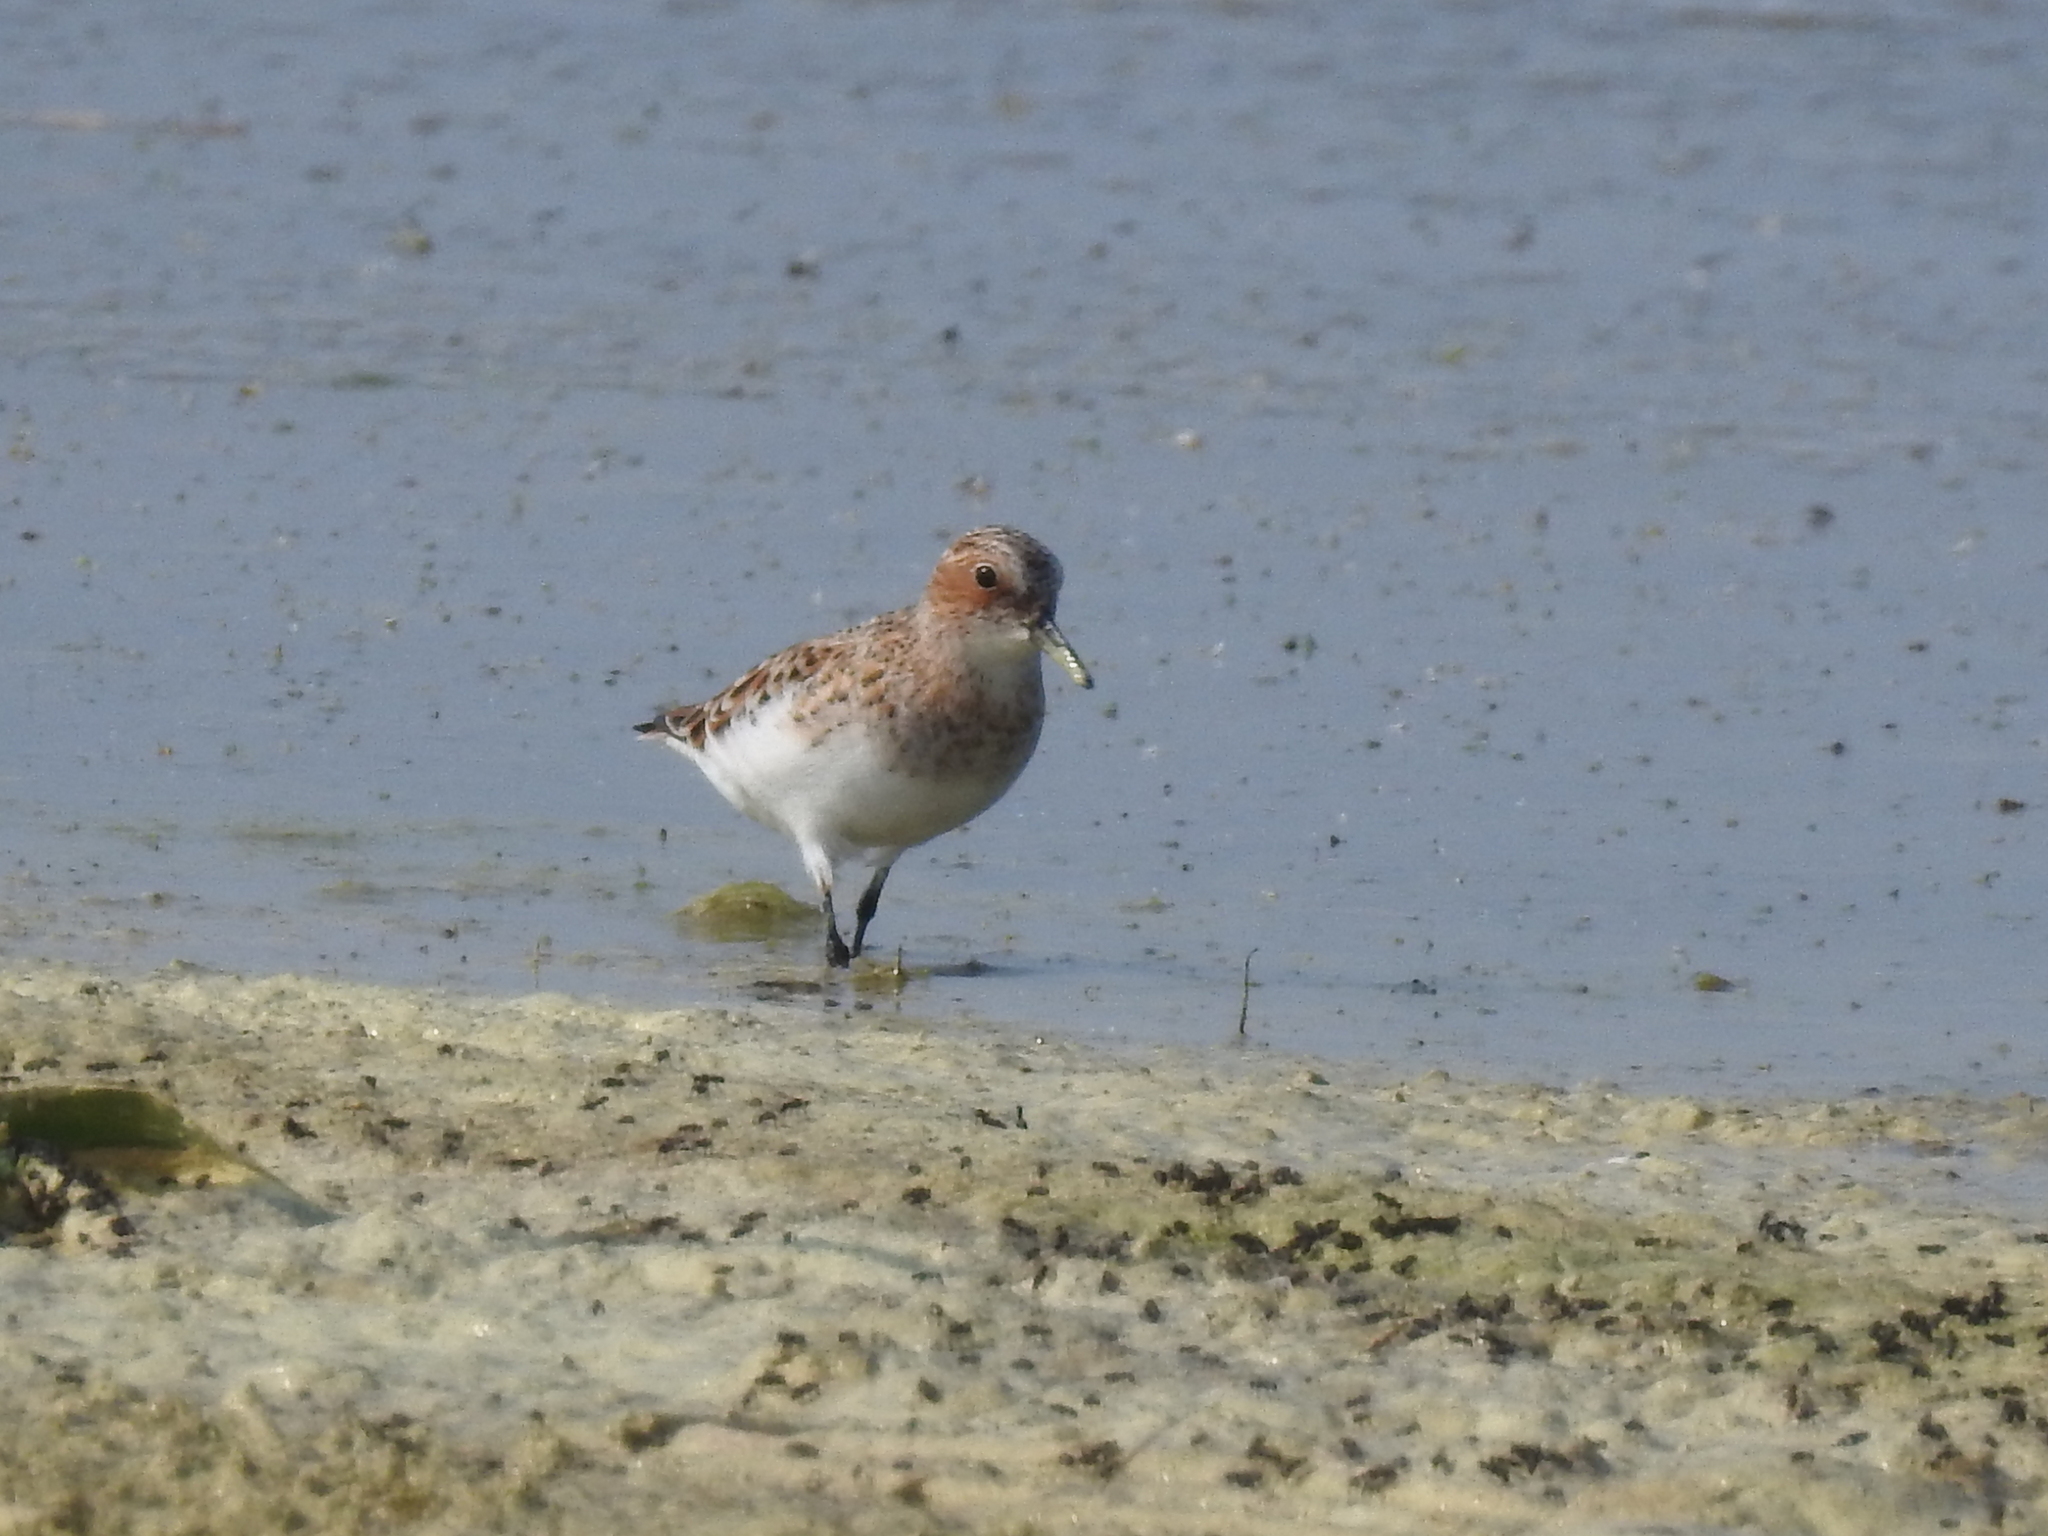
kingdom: Animalia
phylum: Chordata
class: Aves
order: Charadriiformes
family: Scolopacidae
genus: Calidris
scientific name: Calidris minuta
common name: Little stint
